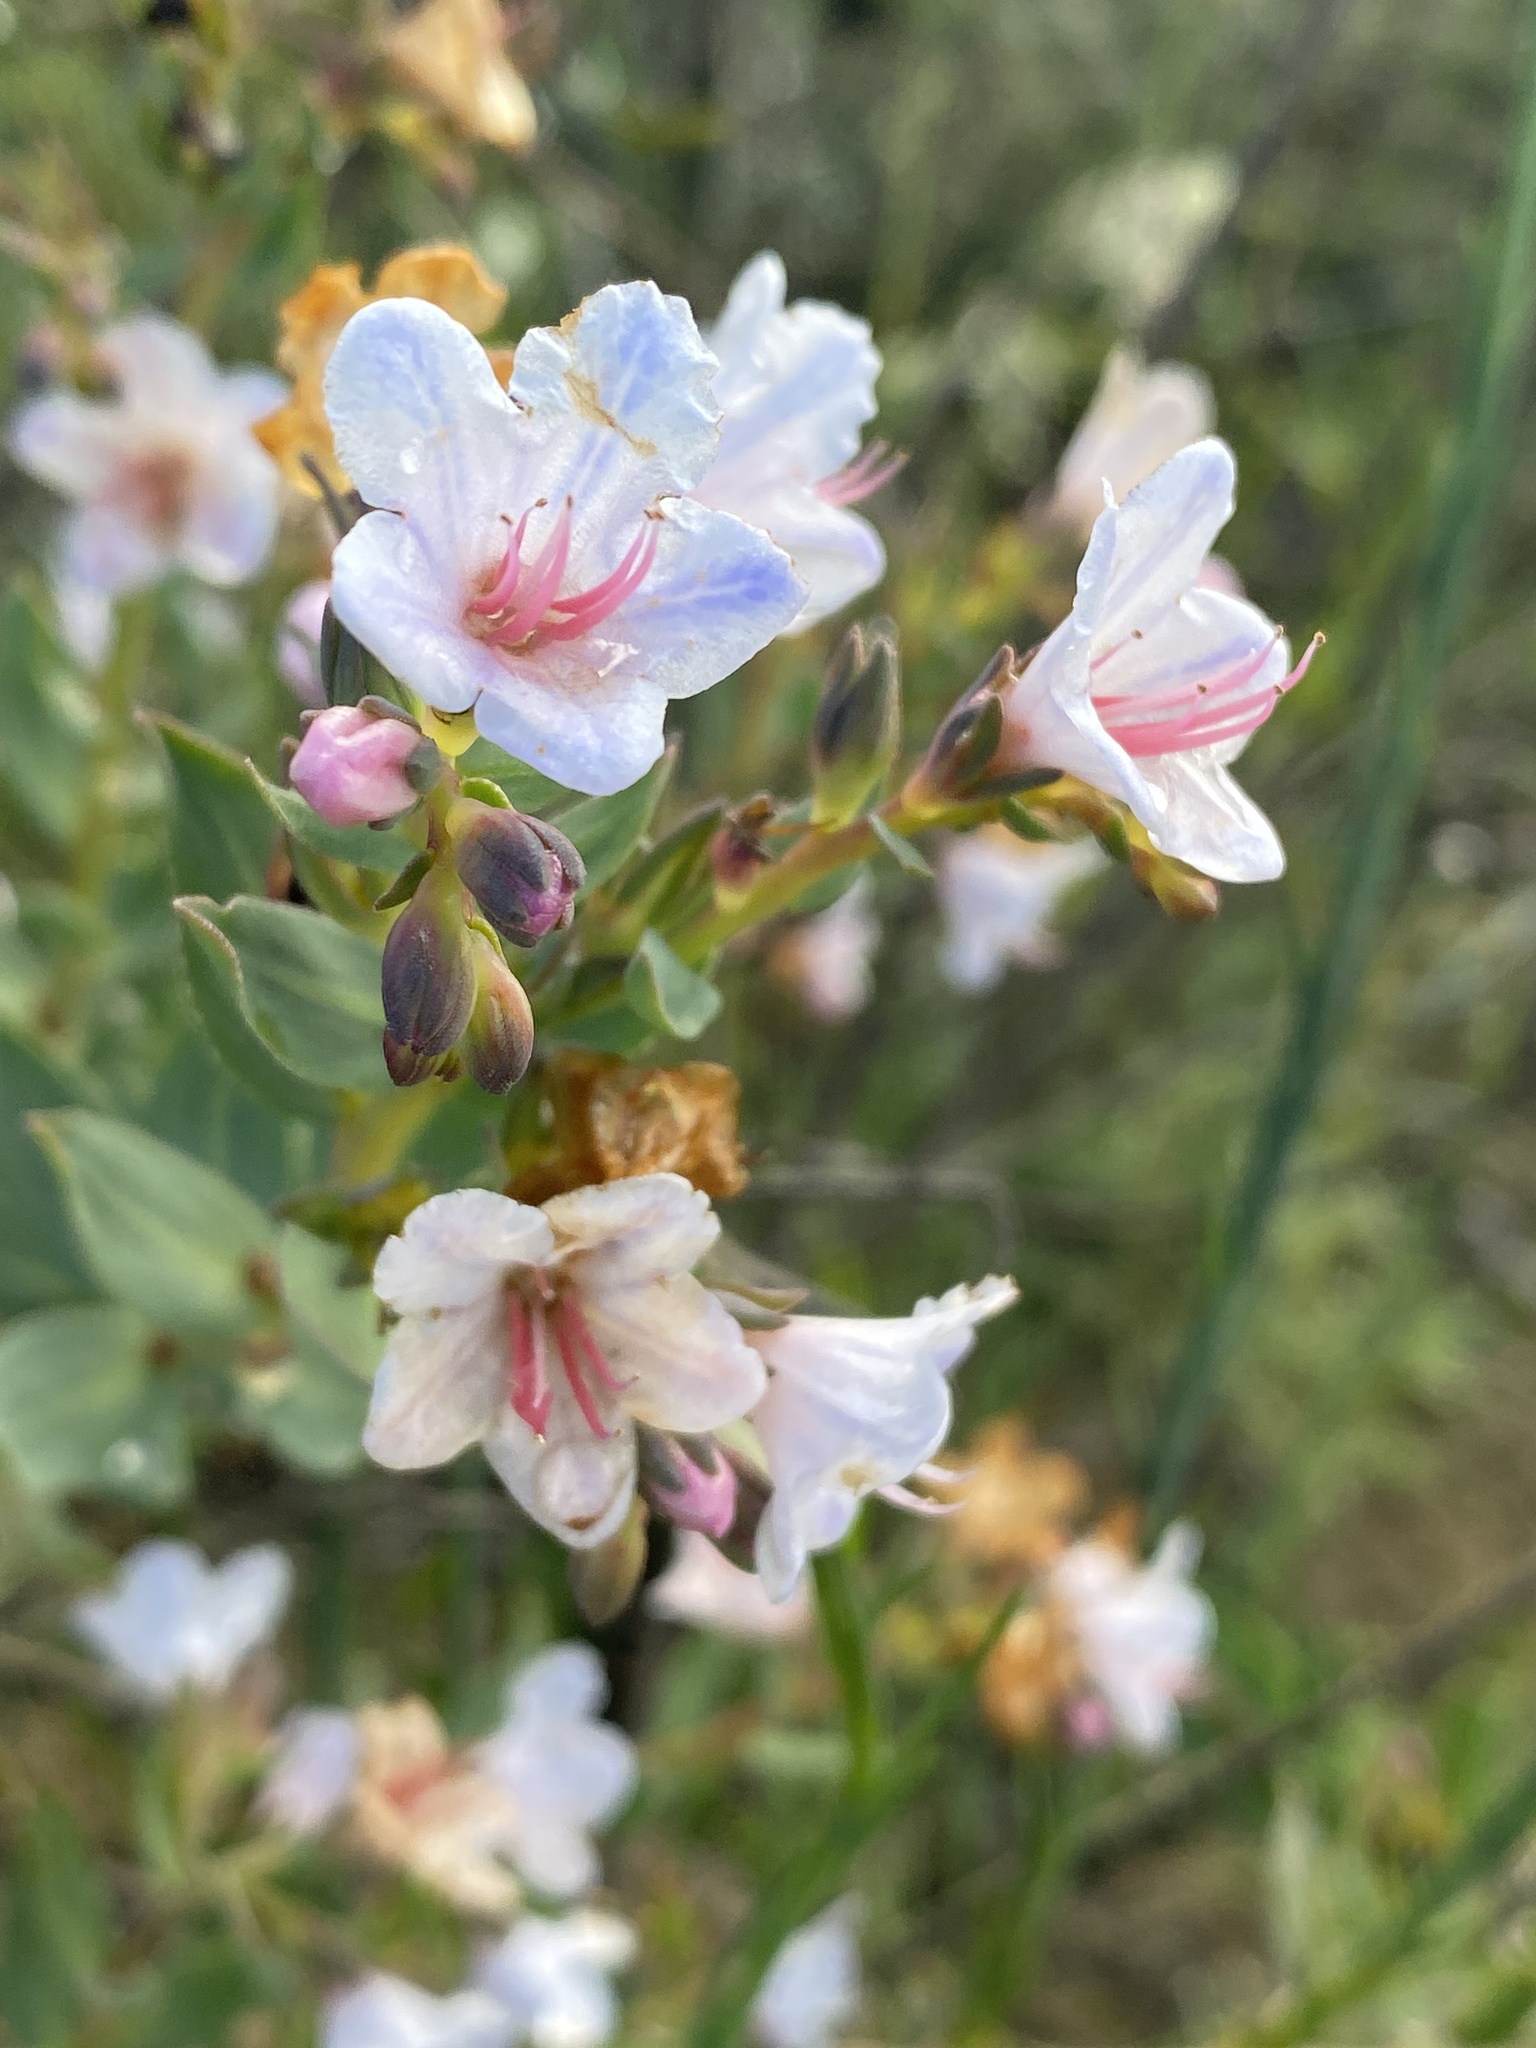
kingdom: Plantae
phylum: Tracheophyta
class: Magnoliopsida
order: Boraginales
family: Boraginaceae
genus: Lobostemon
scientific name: Lobostemon glaucophyllus
